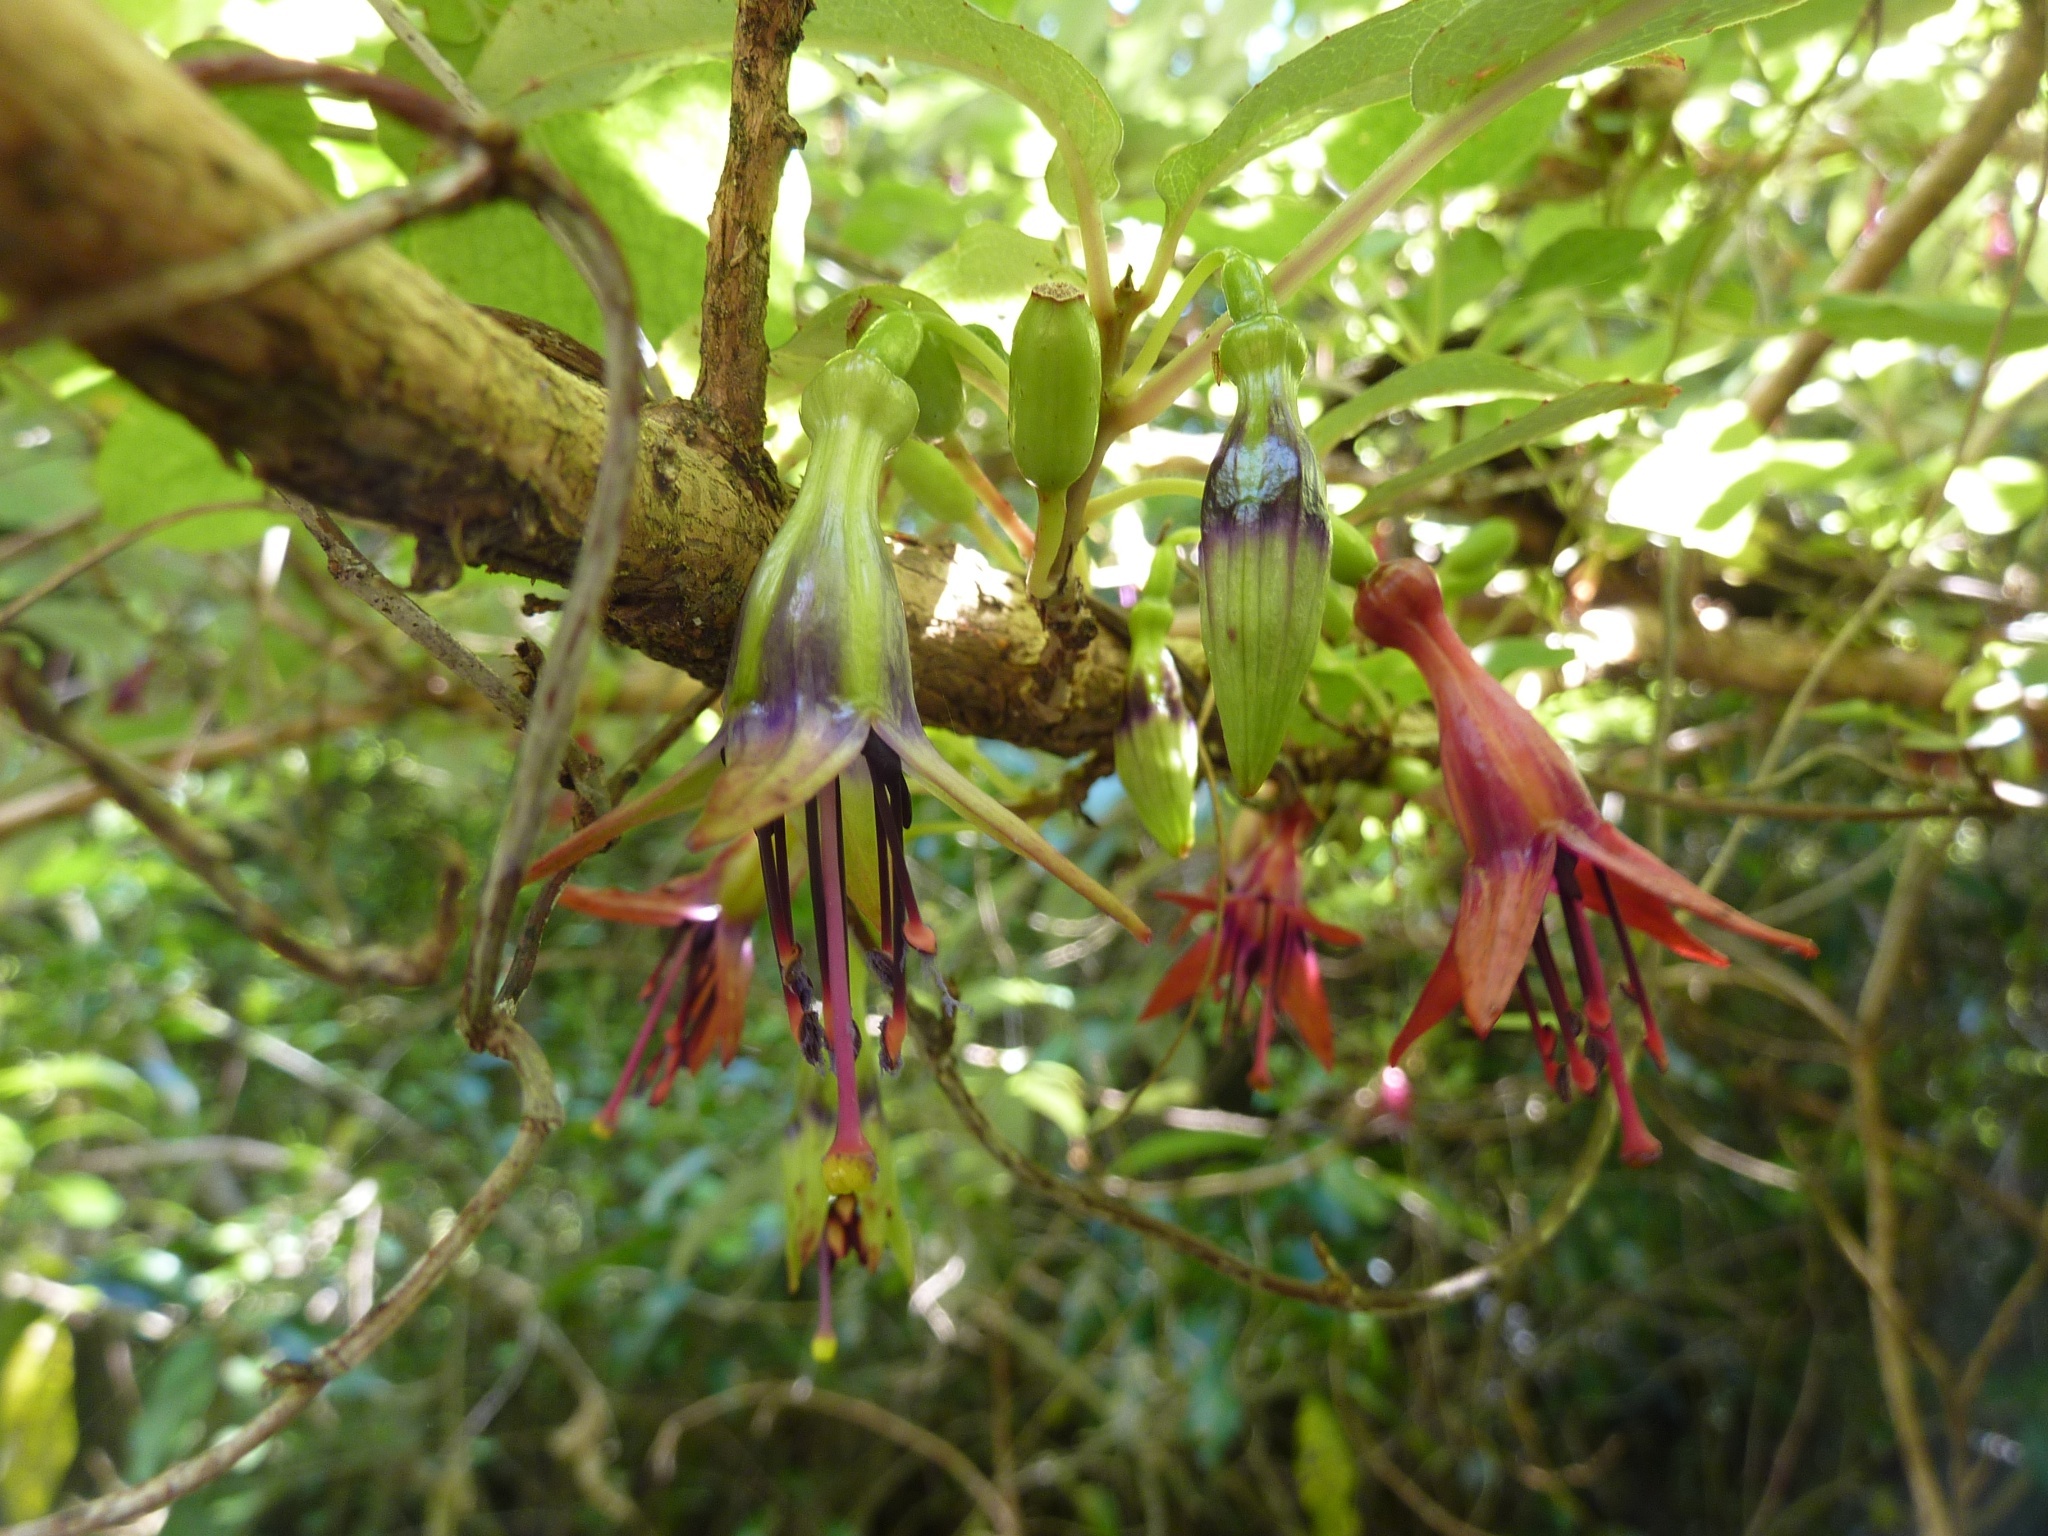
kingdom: Plantae
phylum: Tracheophyta
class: Magnoliopsida
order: Myrtales
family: Onagraceae
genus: Fuchsia
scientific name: Fuchsia excorticata
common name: Tree fuchsia
